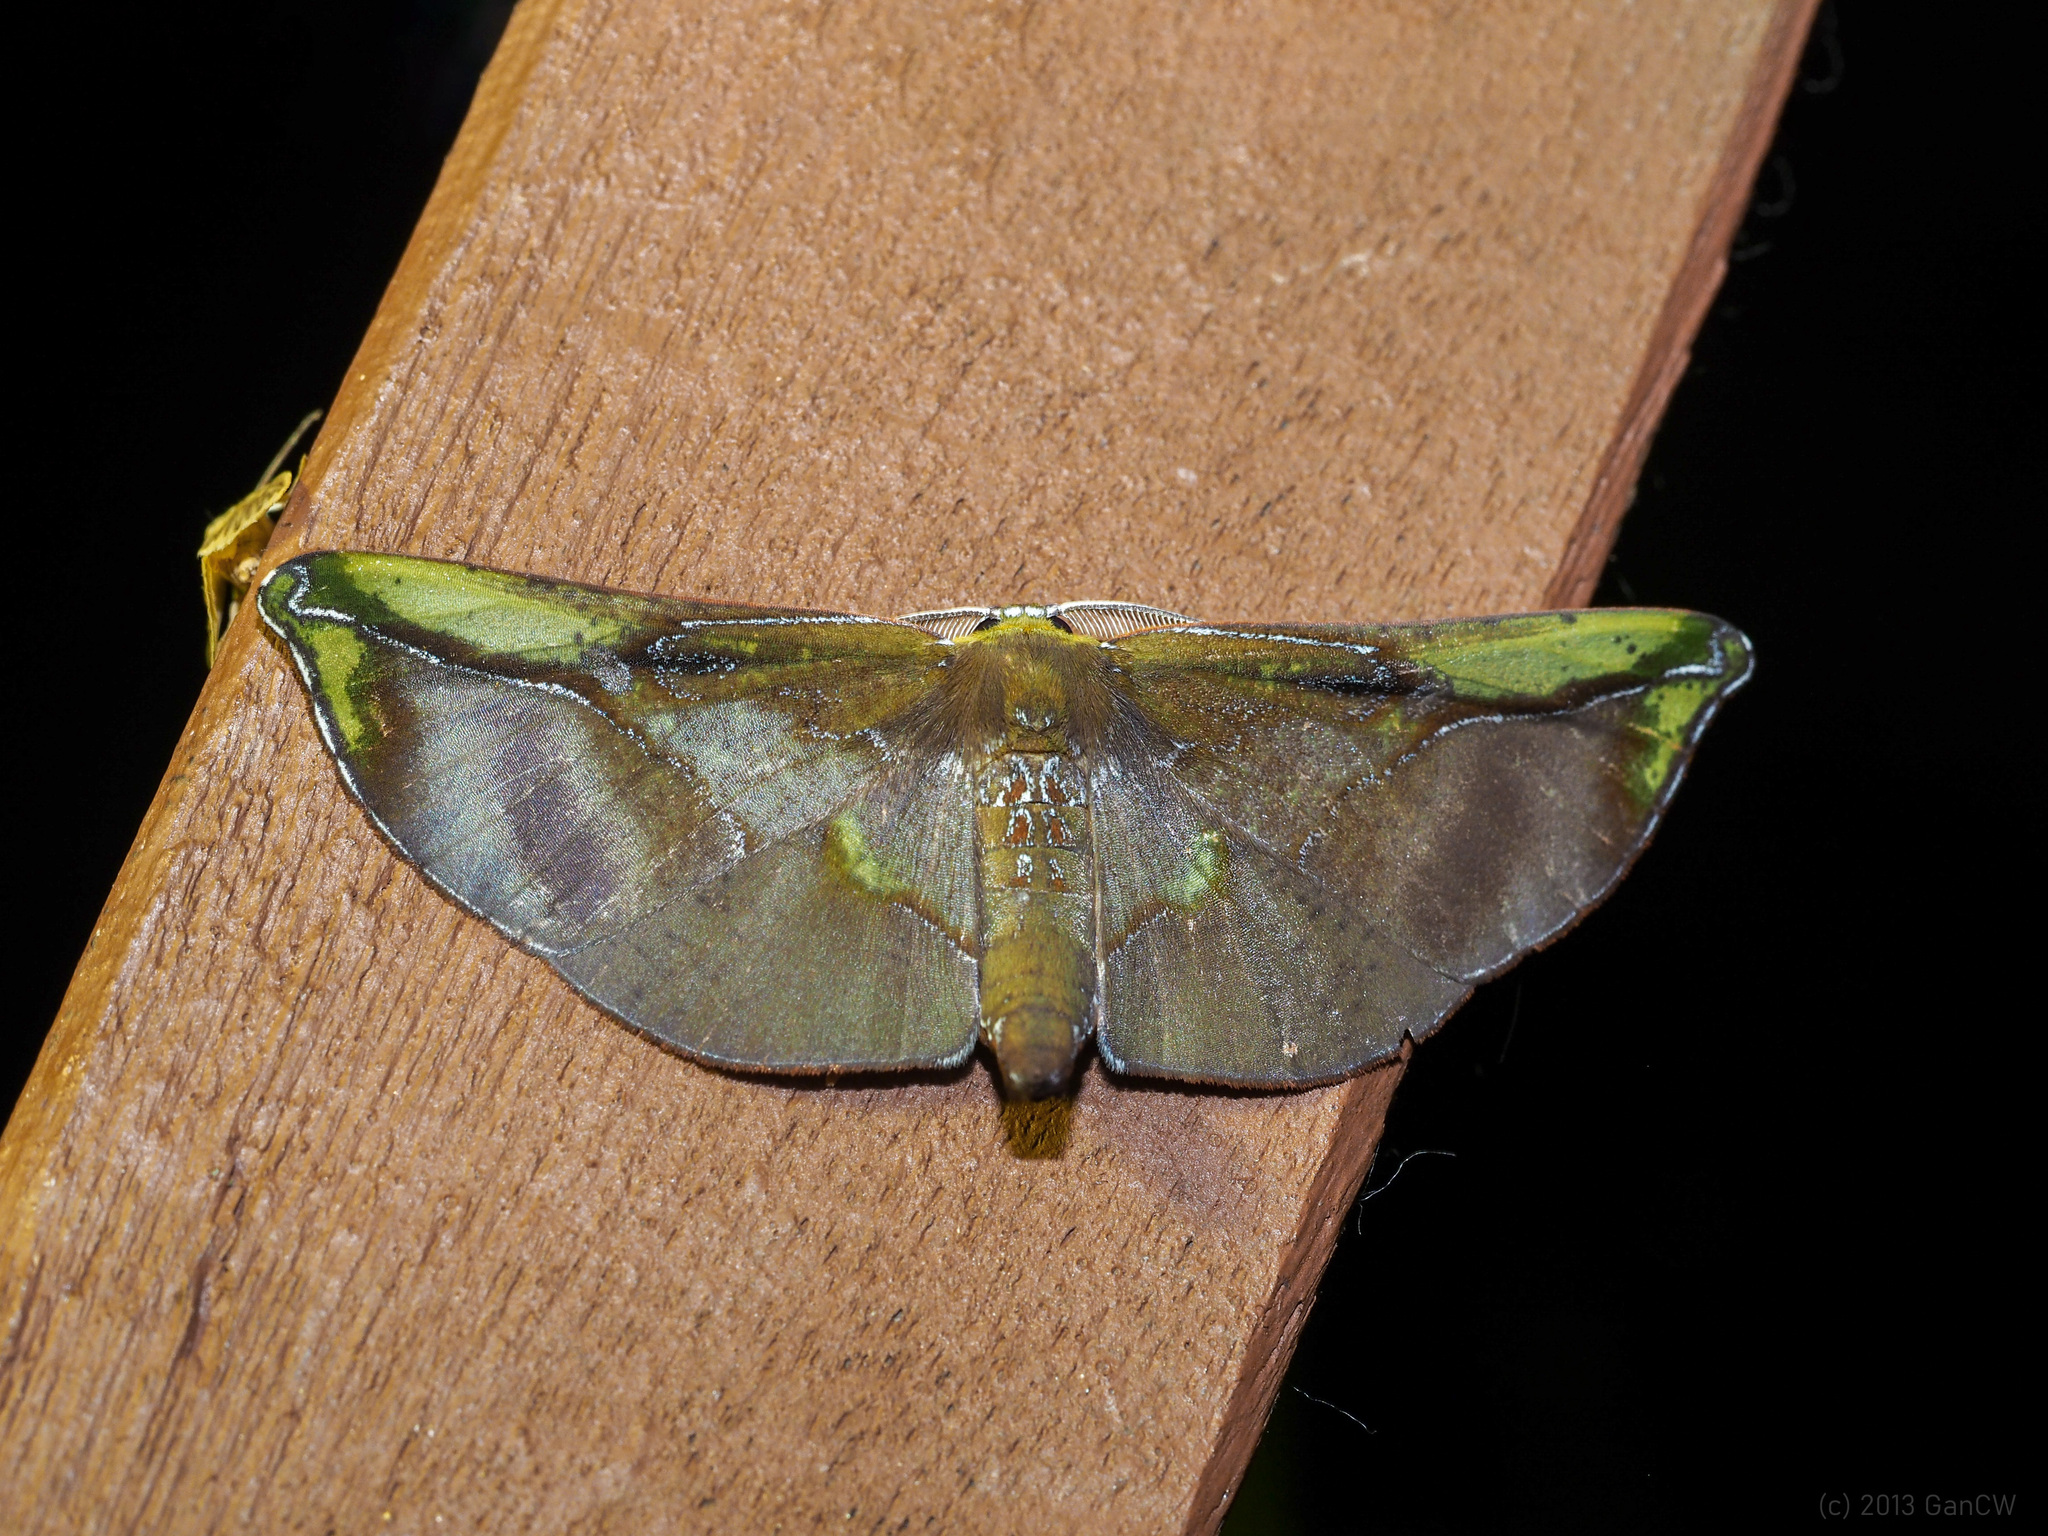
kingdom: Animalia
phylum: Arthropoda
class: Insecta
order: Lepidoptera
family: Geometridae
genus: Omiza
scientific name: Omiza lycoraria
